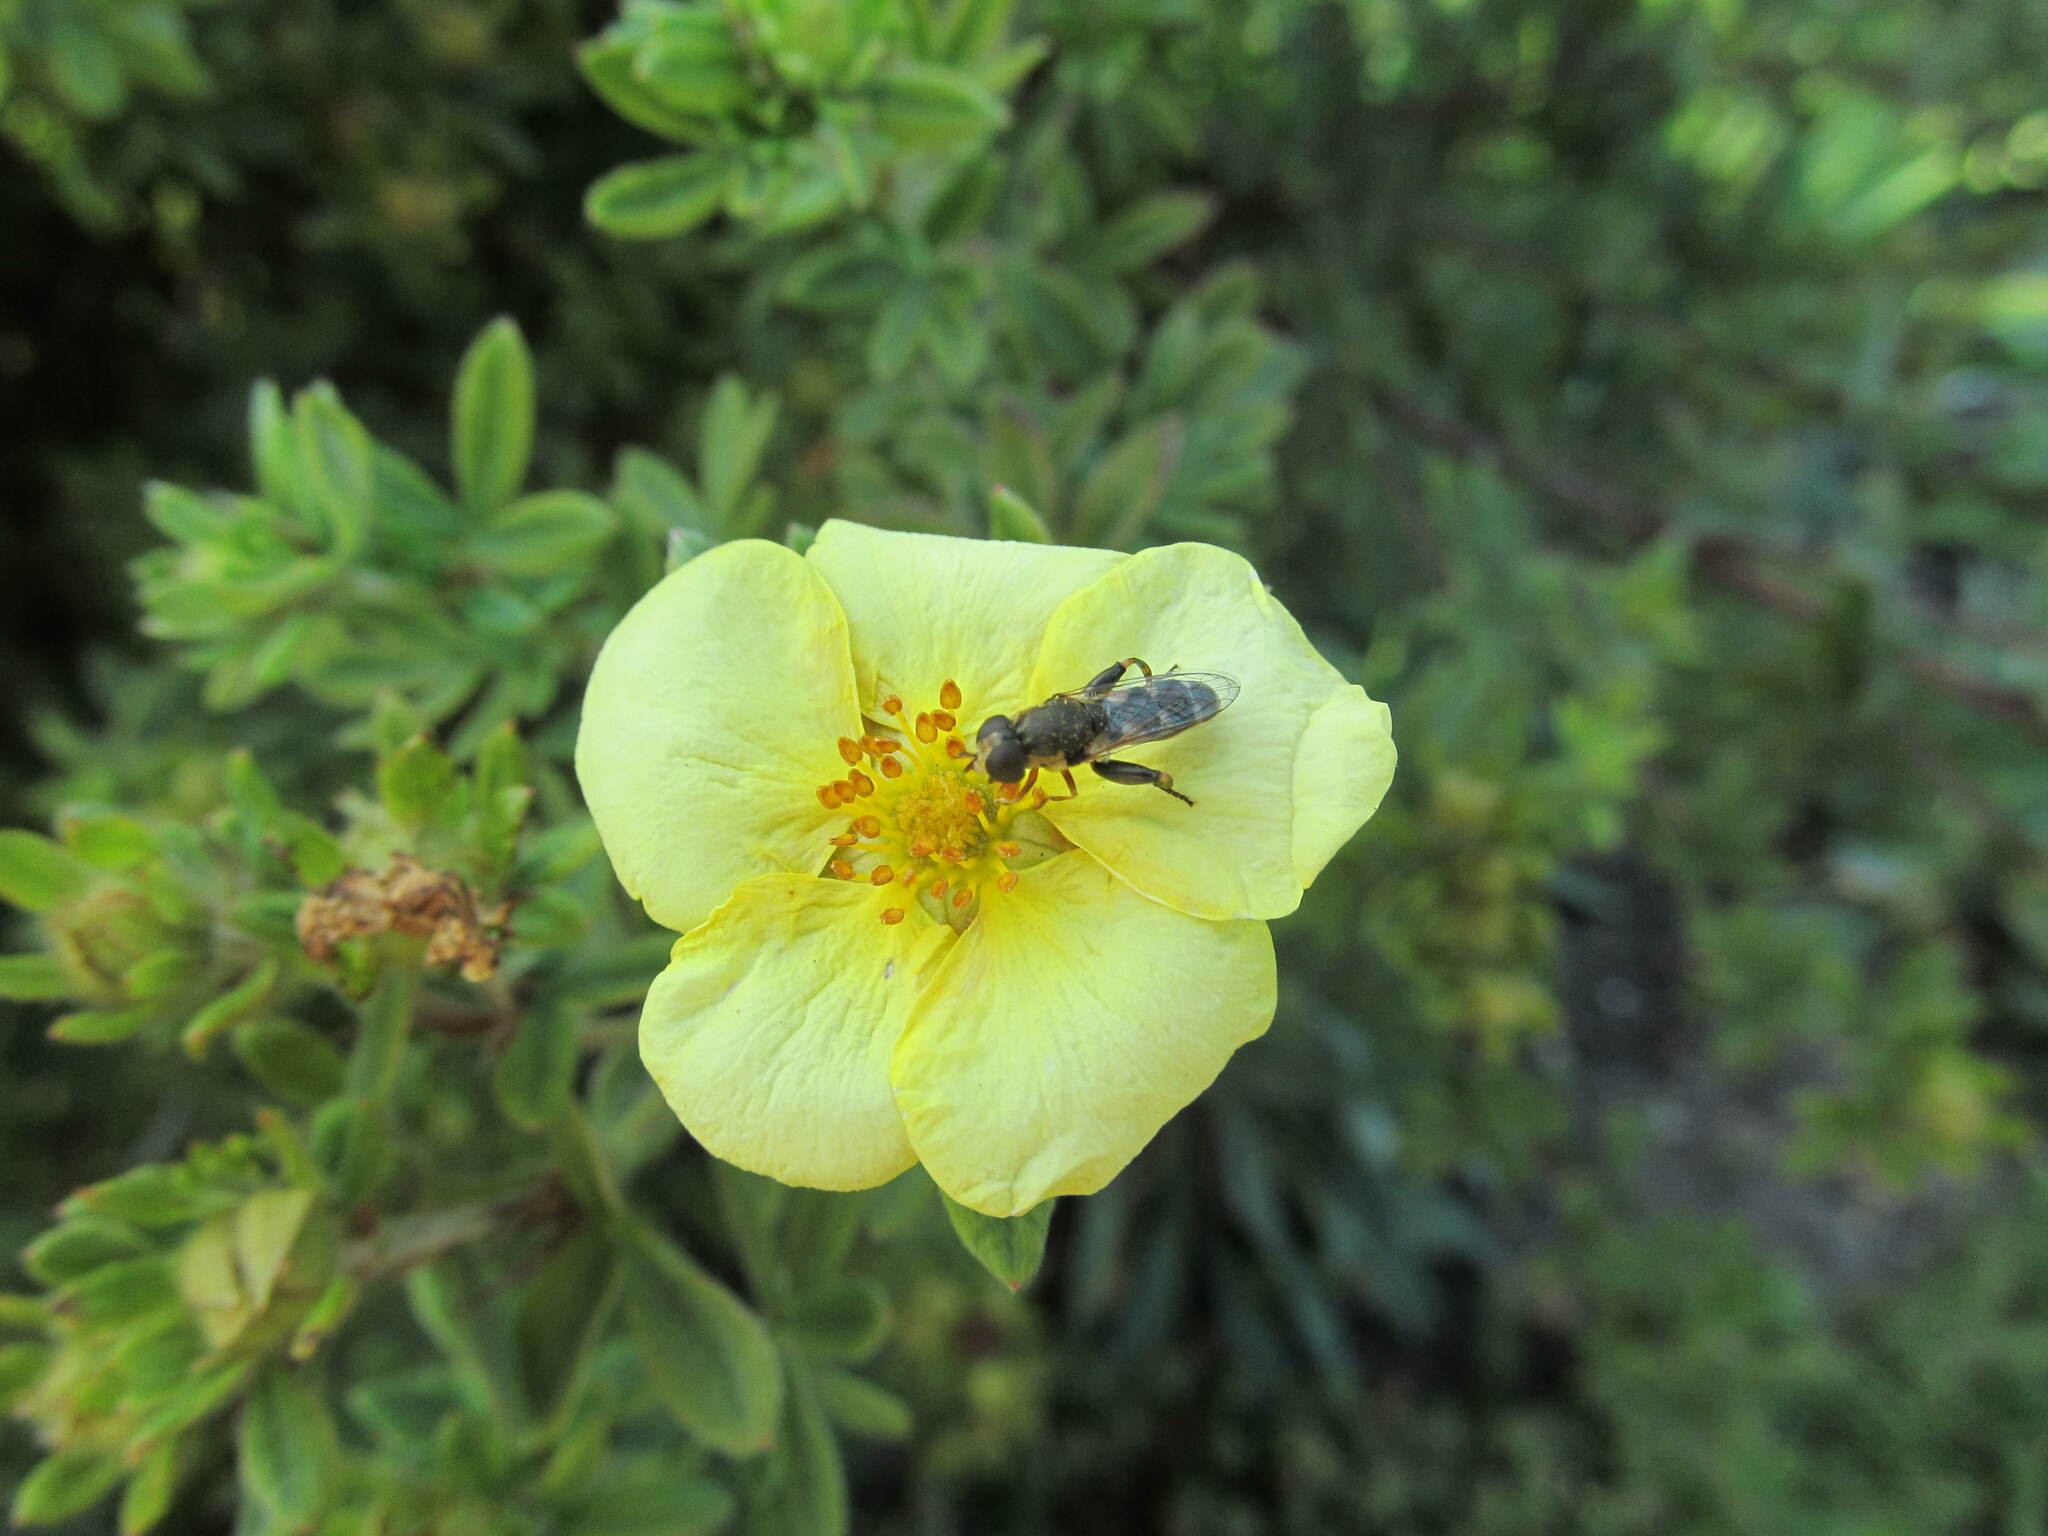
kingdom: Animalia
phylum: Arthropoda
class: Insecta
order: Diptera
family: Syrphidae
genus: Syritta
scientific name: Syritta pipiens
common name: Hover fly
